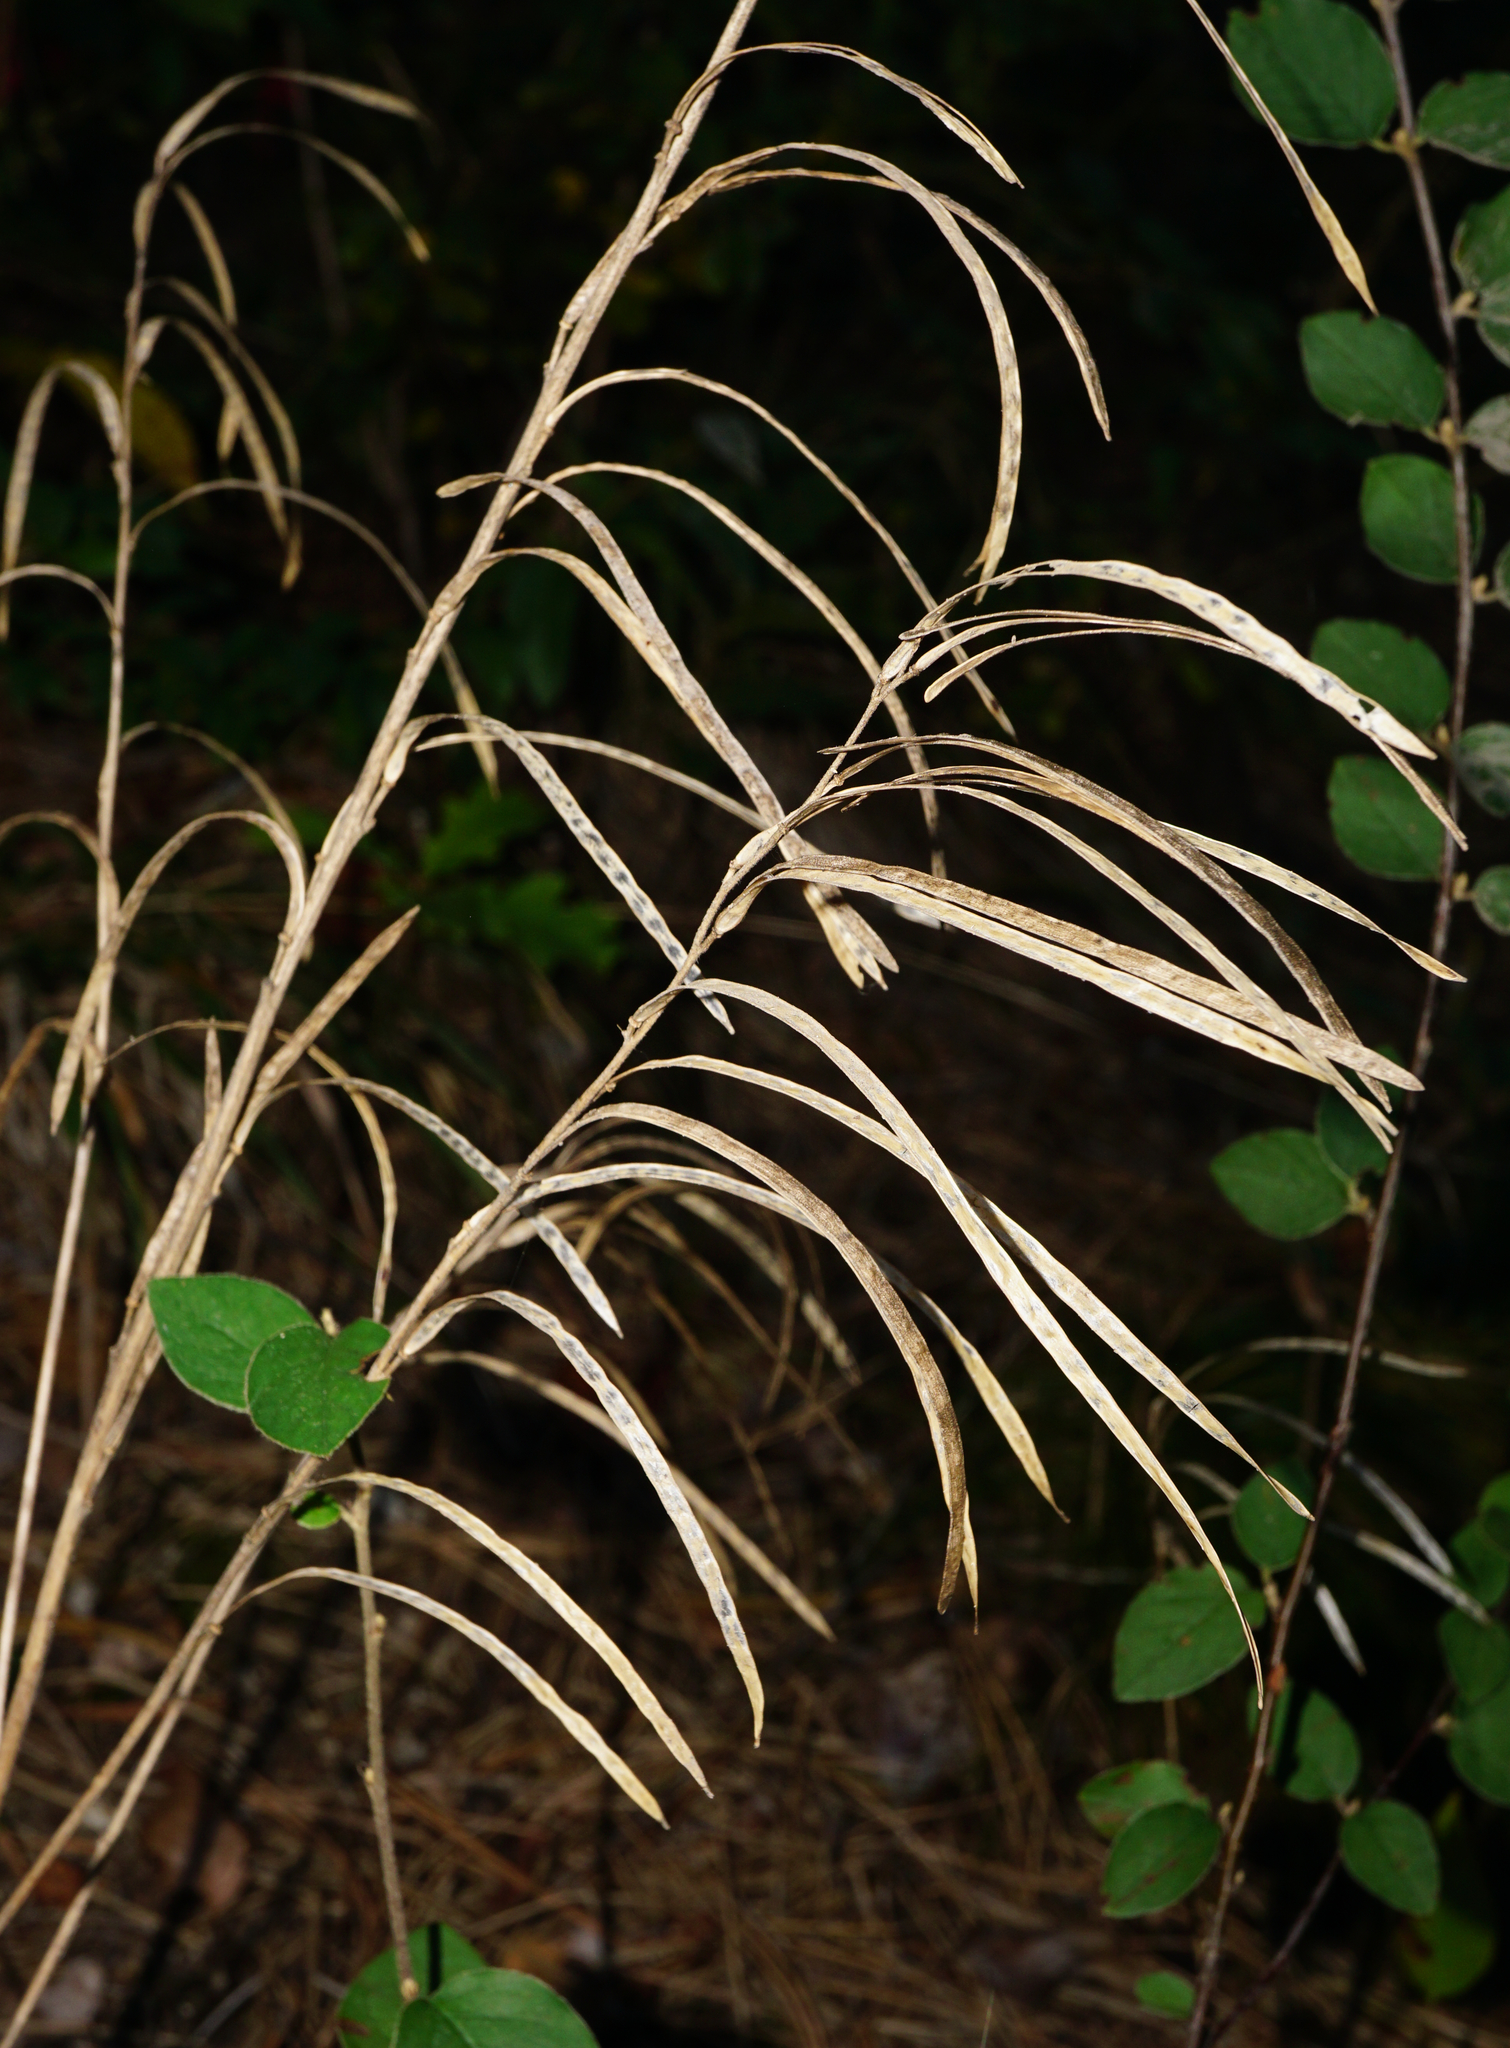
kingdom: Plantae
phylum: Tracheophyta
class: Magnoliopsida
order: Brassicales
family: Brassicaceae
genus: Pseudoturritis
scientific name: Pseudoturritis turrita
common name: Tower cress
